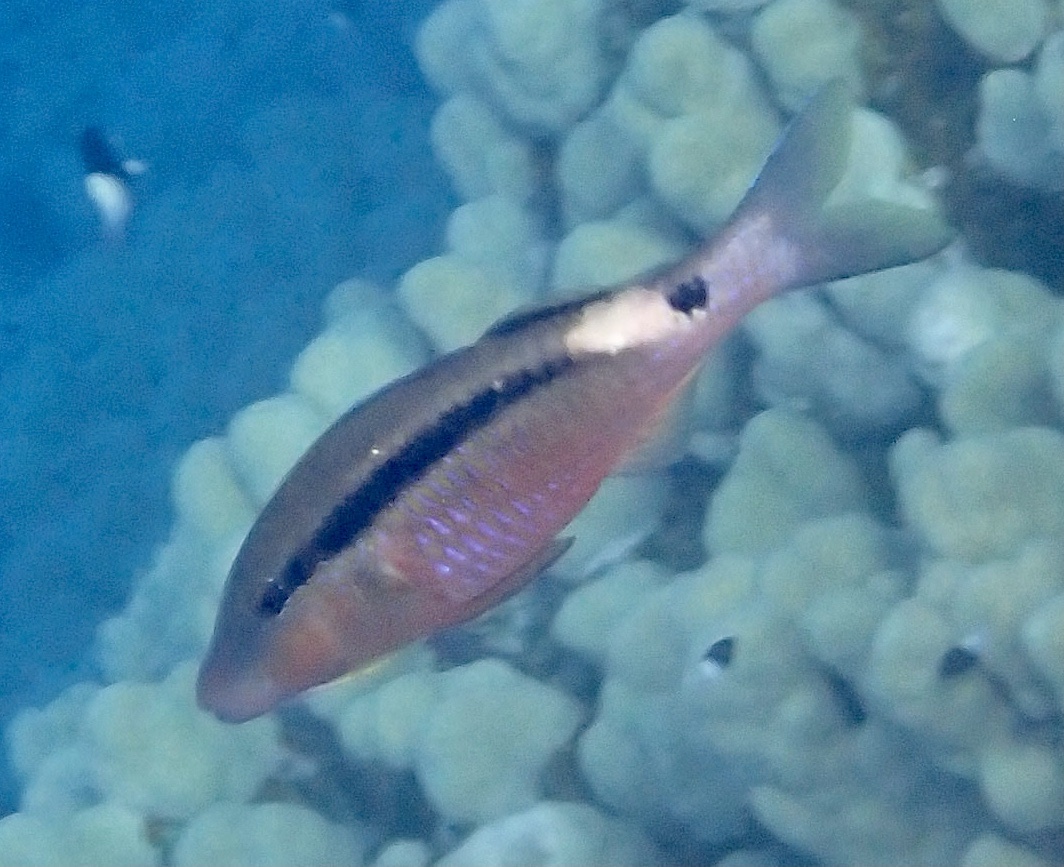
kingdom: Animalia
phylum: Chordata
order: Perciformes
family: Mullidae
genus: Parupeneus
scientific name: Parupeneus macronemus
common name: Long-barbel goatfish
